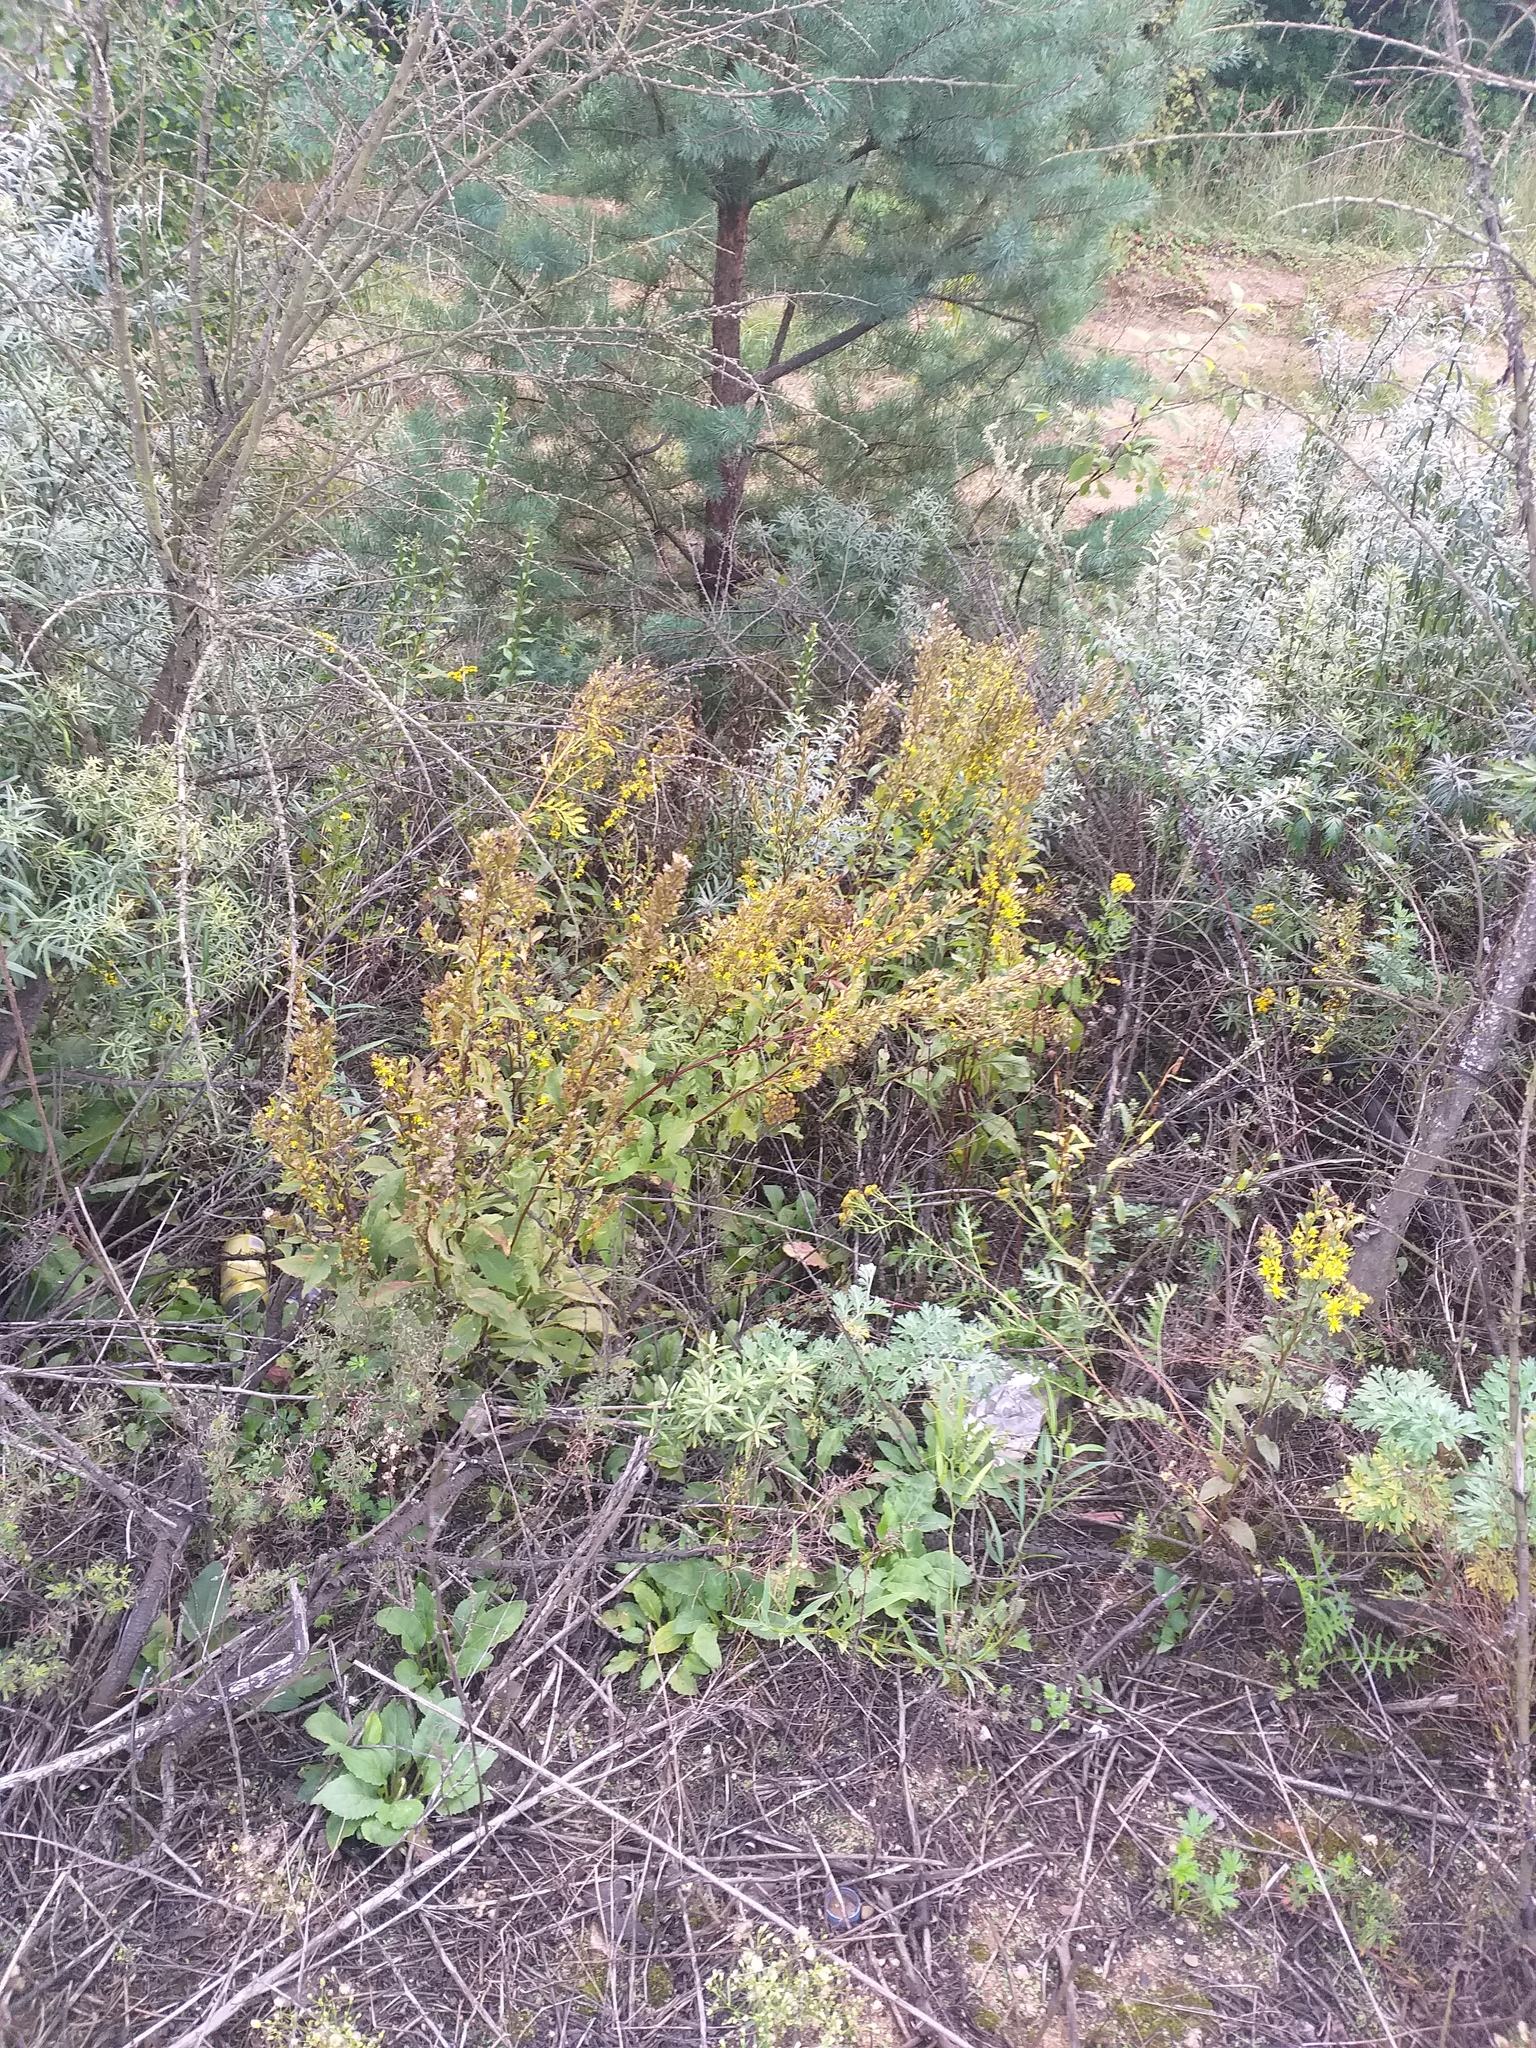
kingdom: Plantae
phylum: Tracheophyta
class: Magnoliopsida
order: Asterales
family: Asteraceae
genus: Solidago
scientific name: Solidago virgaurea
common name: Goldenrod
